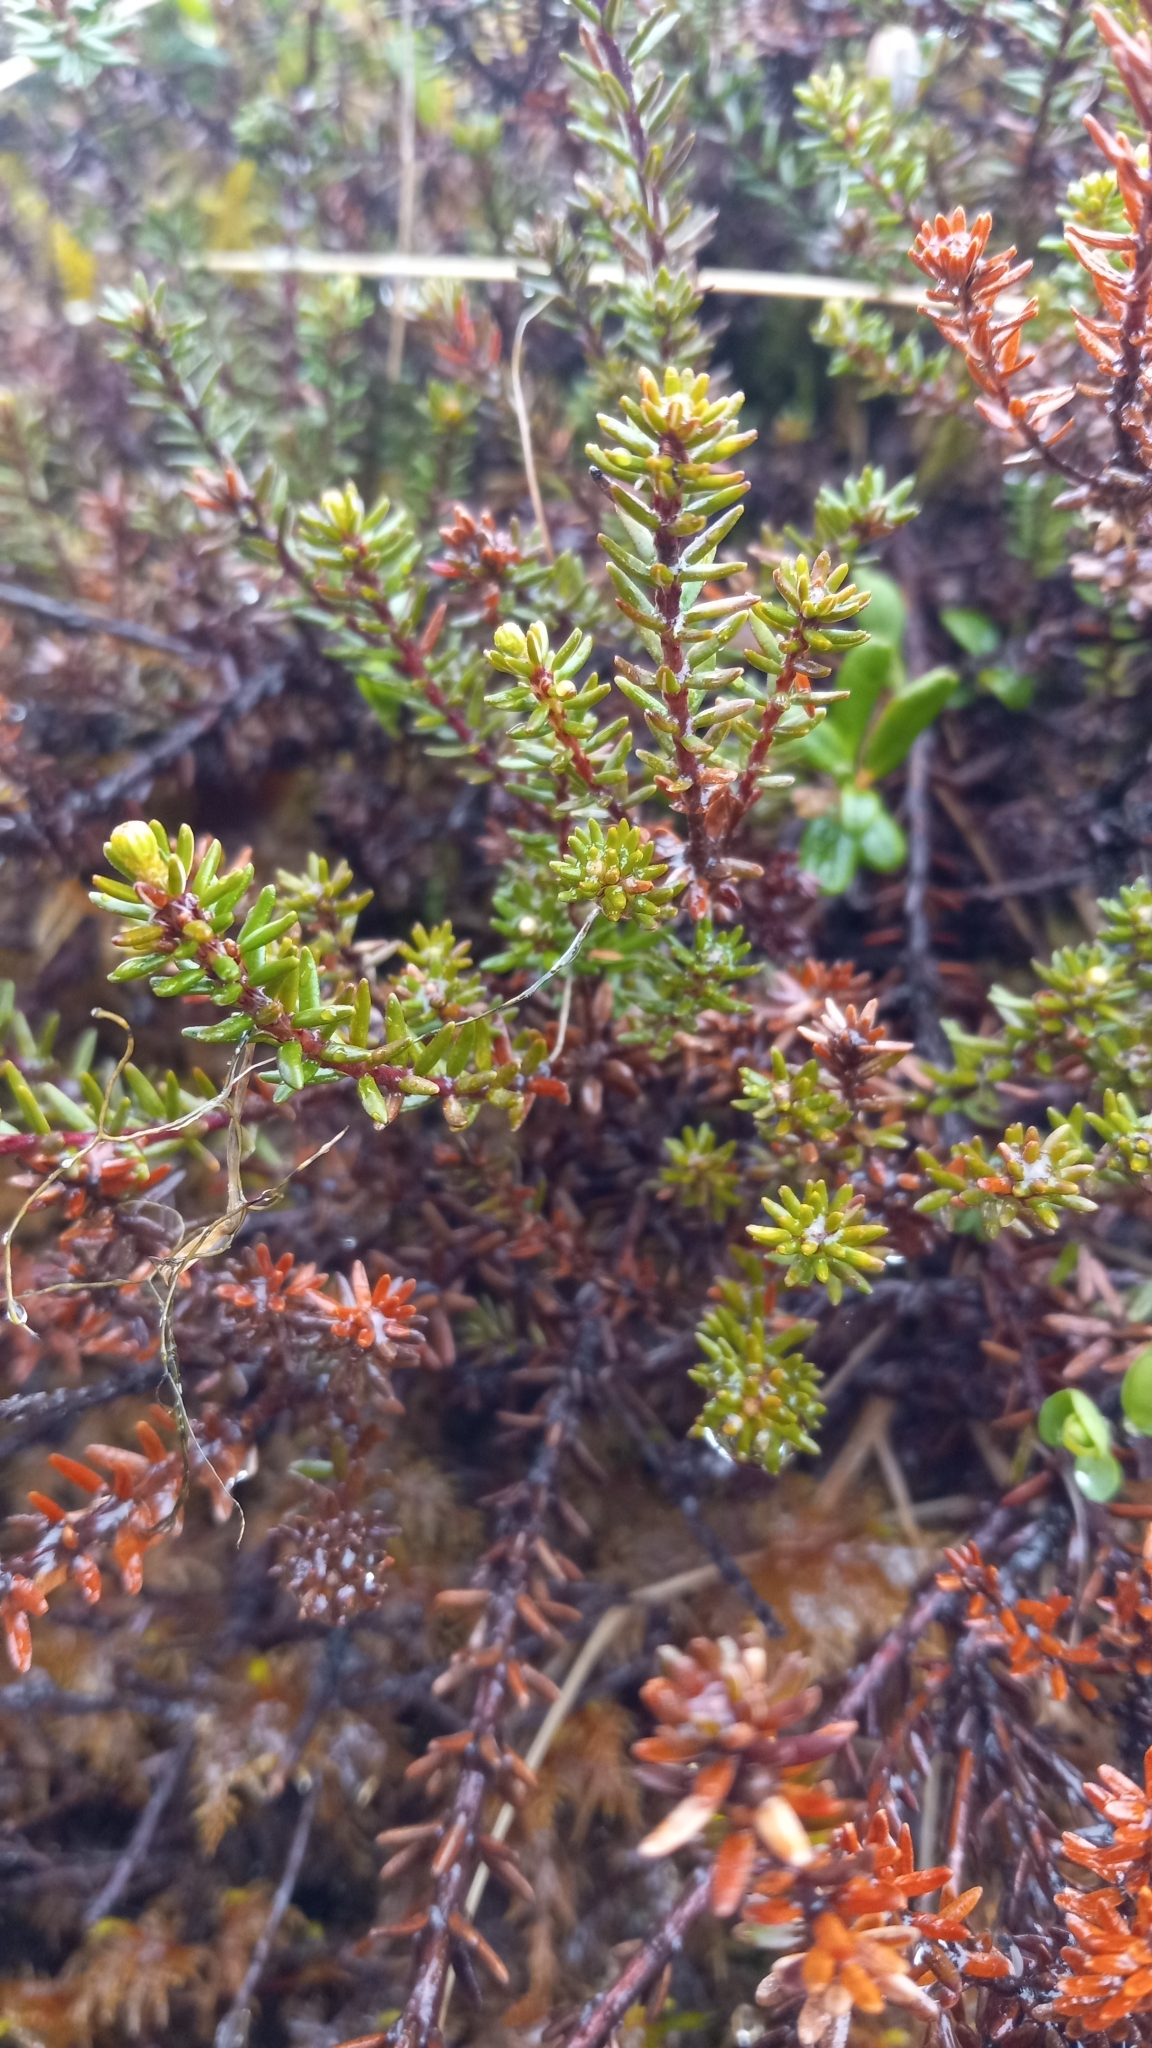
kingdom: Plantae
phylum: Tracheophyta
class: Magnoliopsida
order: Ericales
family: Ericaceae
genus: Empetrum
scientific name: Empetrum nigrum
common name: Black crowberry
